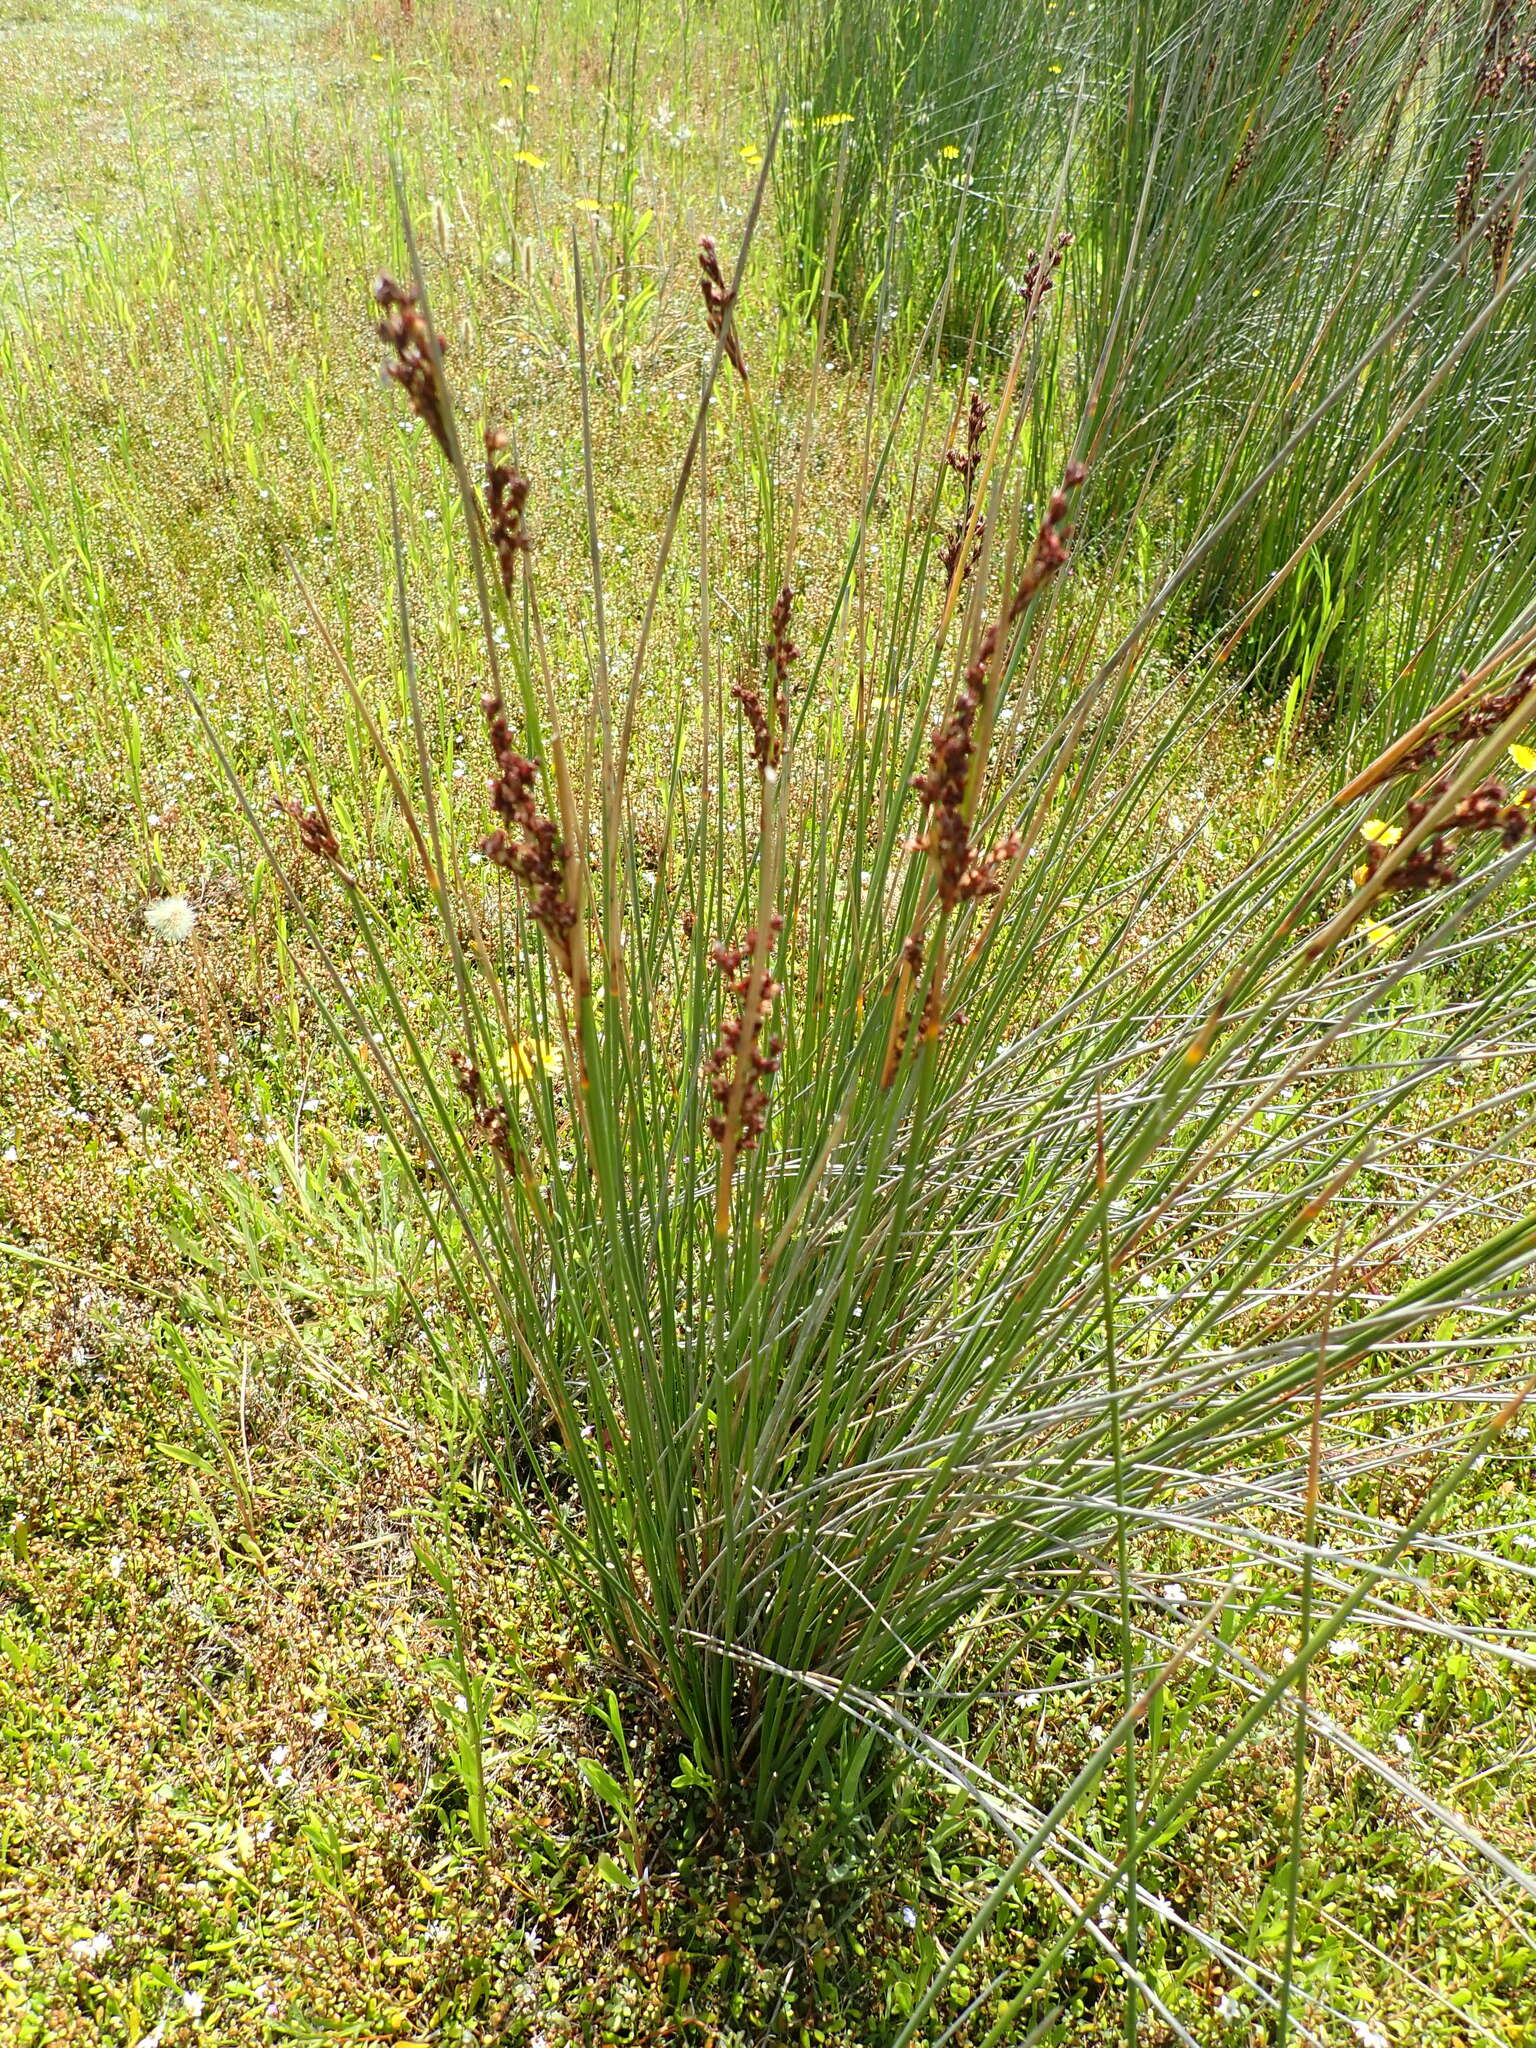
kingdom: Plantae
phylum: Tracheophyta
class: Liliopsida
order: Poales
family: Juncaceae
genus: Juncus
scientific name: Juncus kraussii
